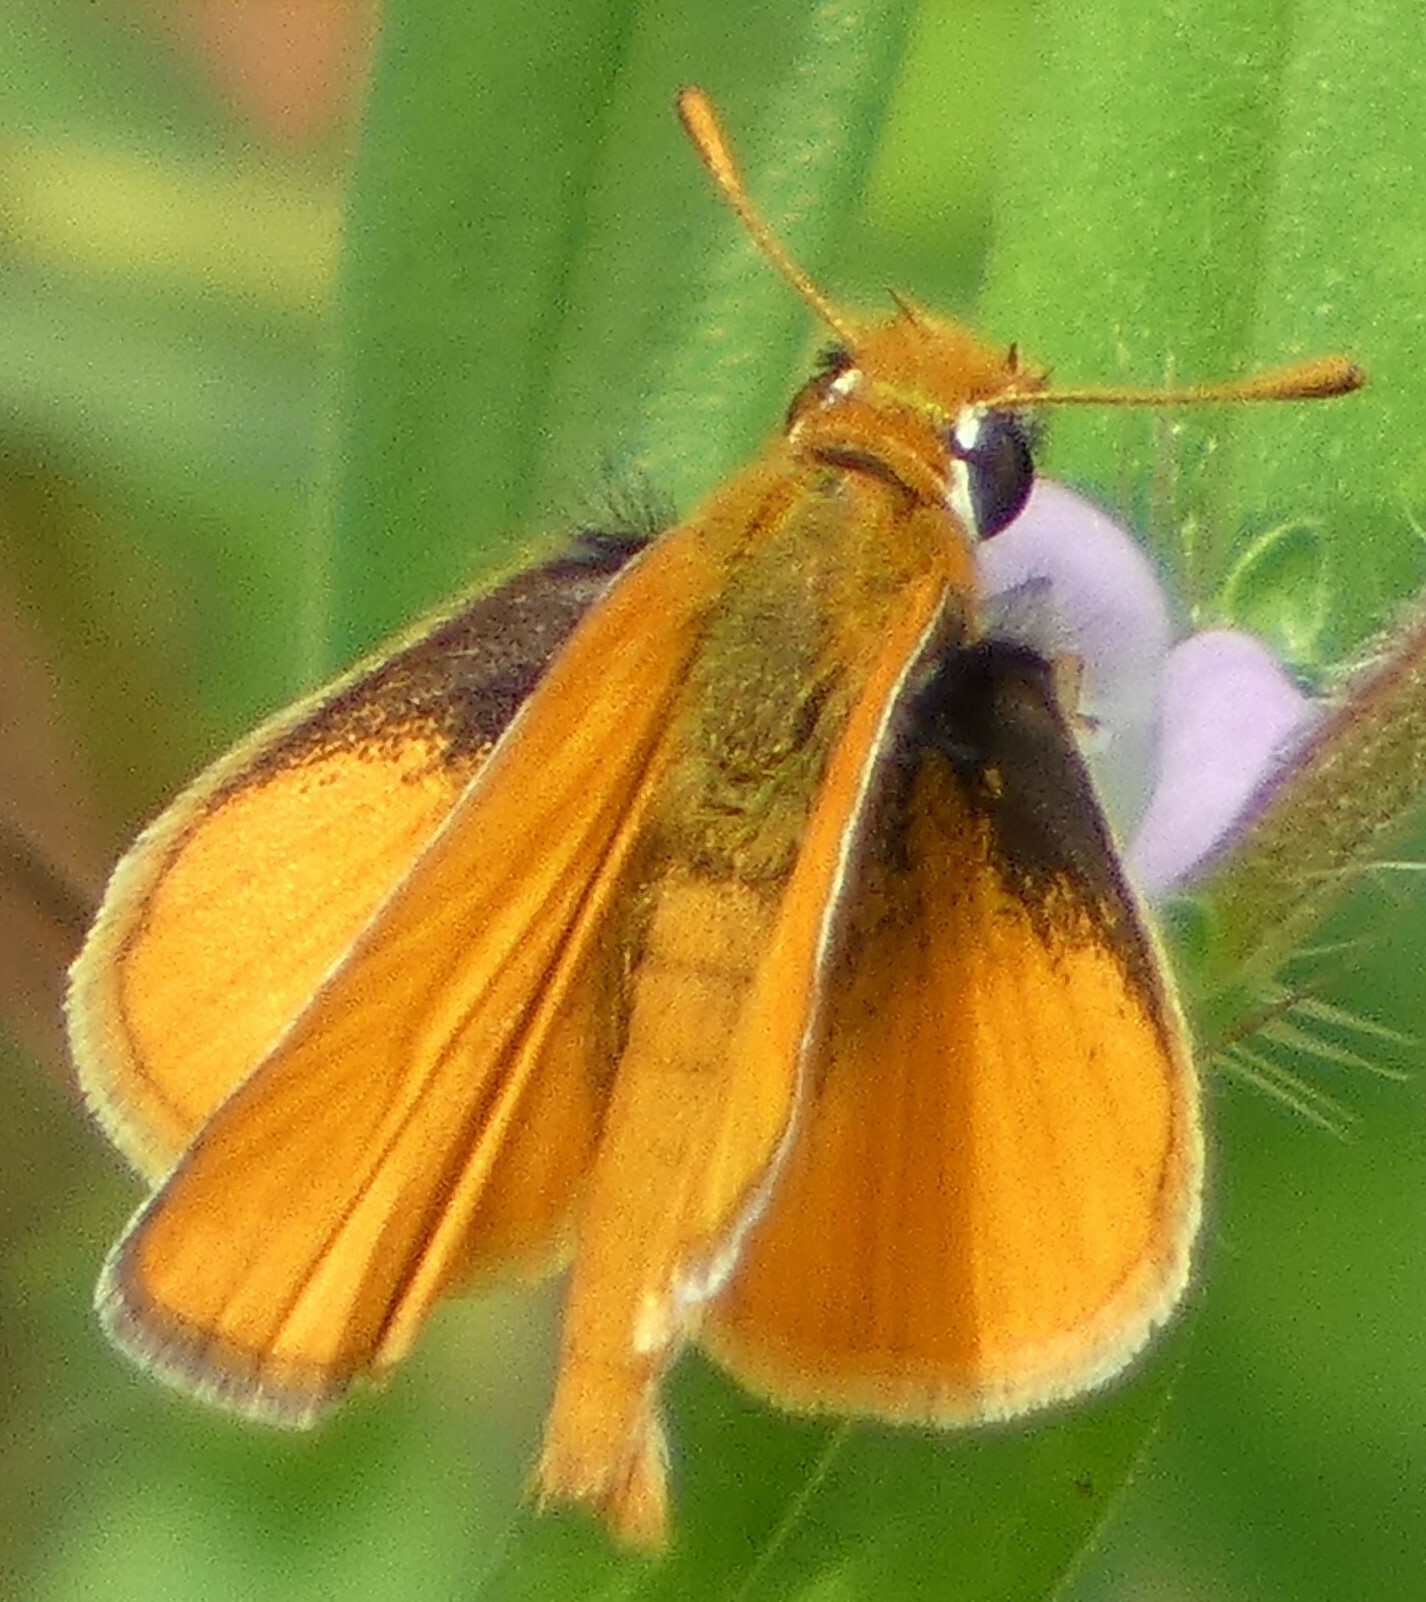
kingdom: Animalia
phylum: Arthropoda
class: Insecta
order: Lepidoptera
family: Hesperiidae
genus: Copaeodes
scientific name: Copaeodes minima
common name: Southern skipperling
